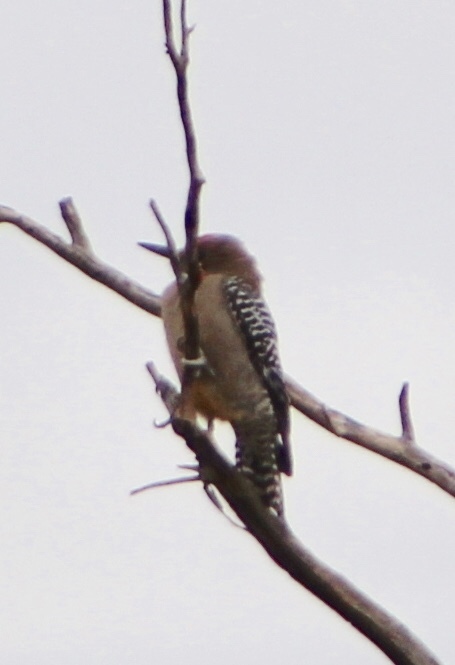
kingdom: Animalia
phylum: Chordata
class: Aves
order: Piciformes
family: Picidae
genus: Melanerpes
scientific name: Melanerpes uropygialis
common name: Gila woodpecker
